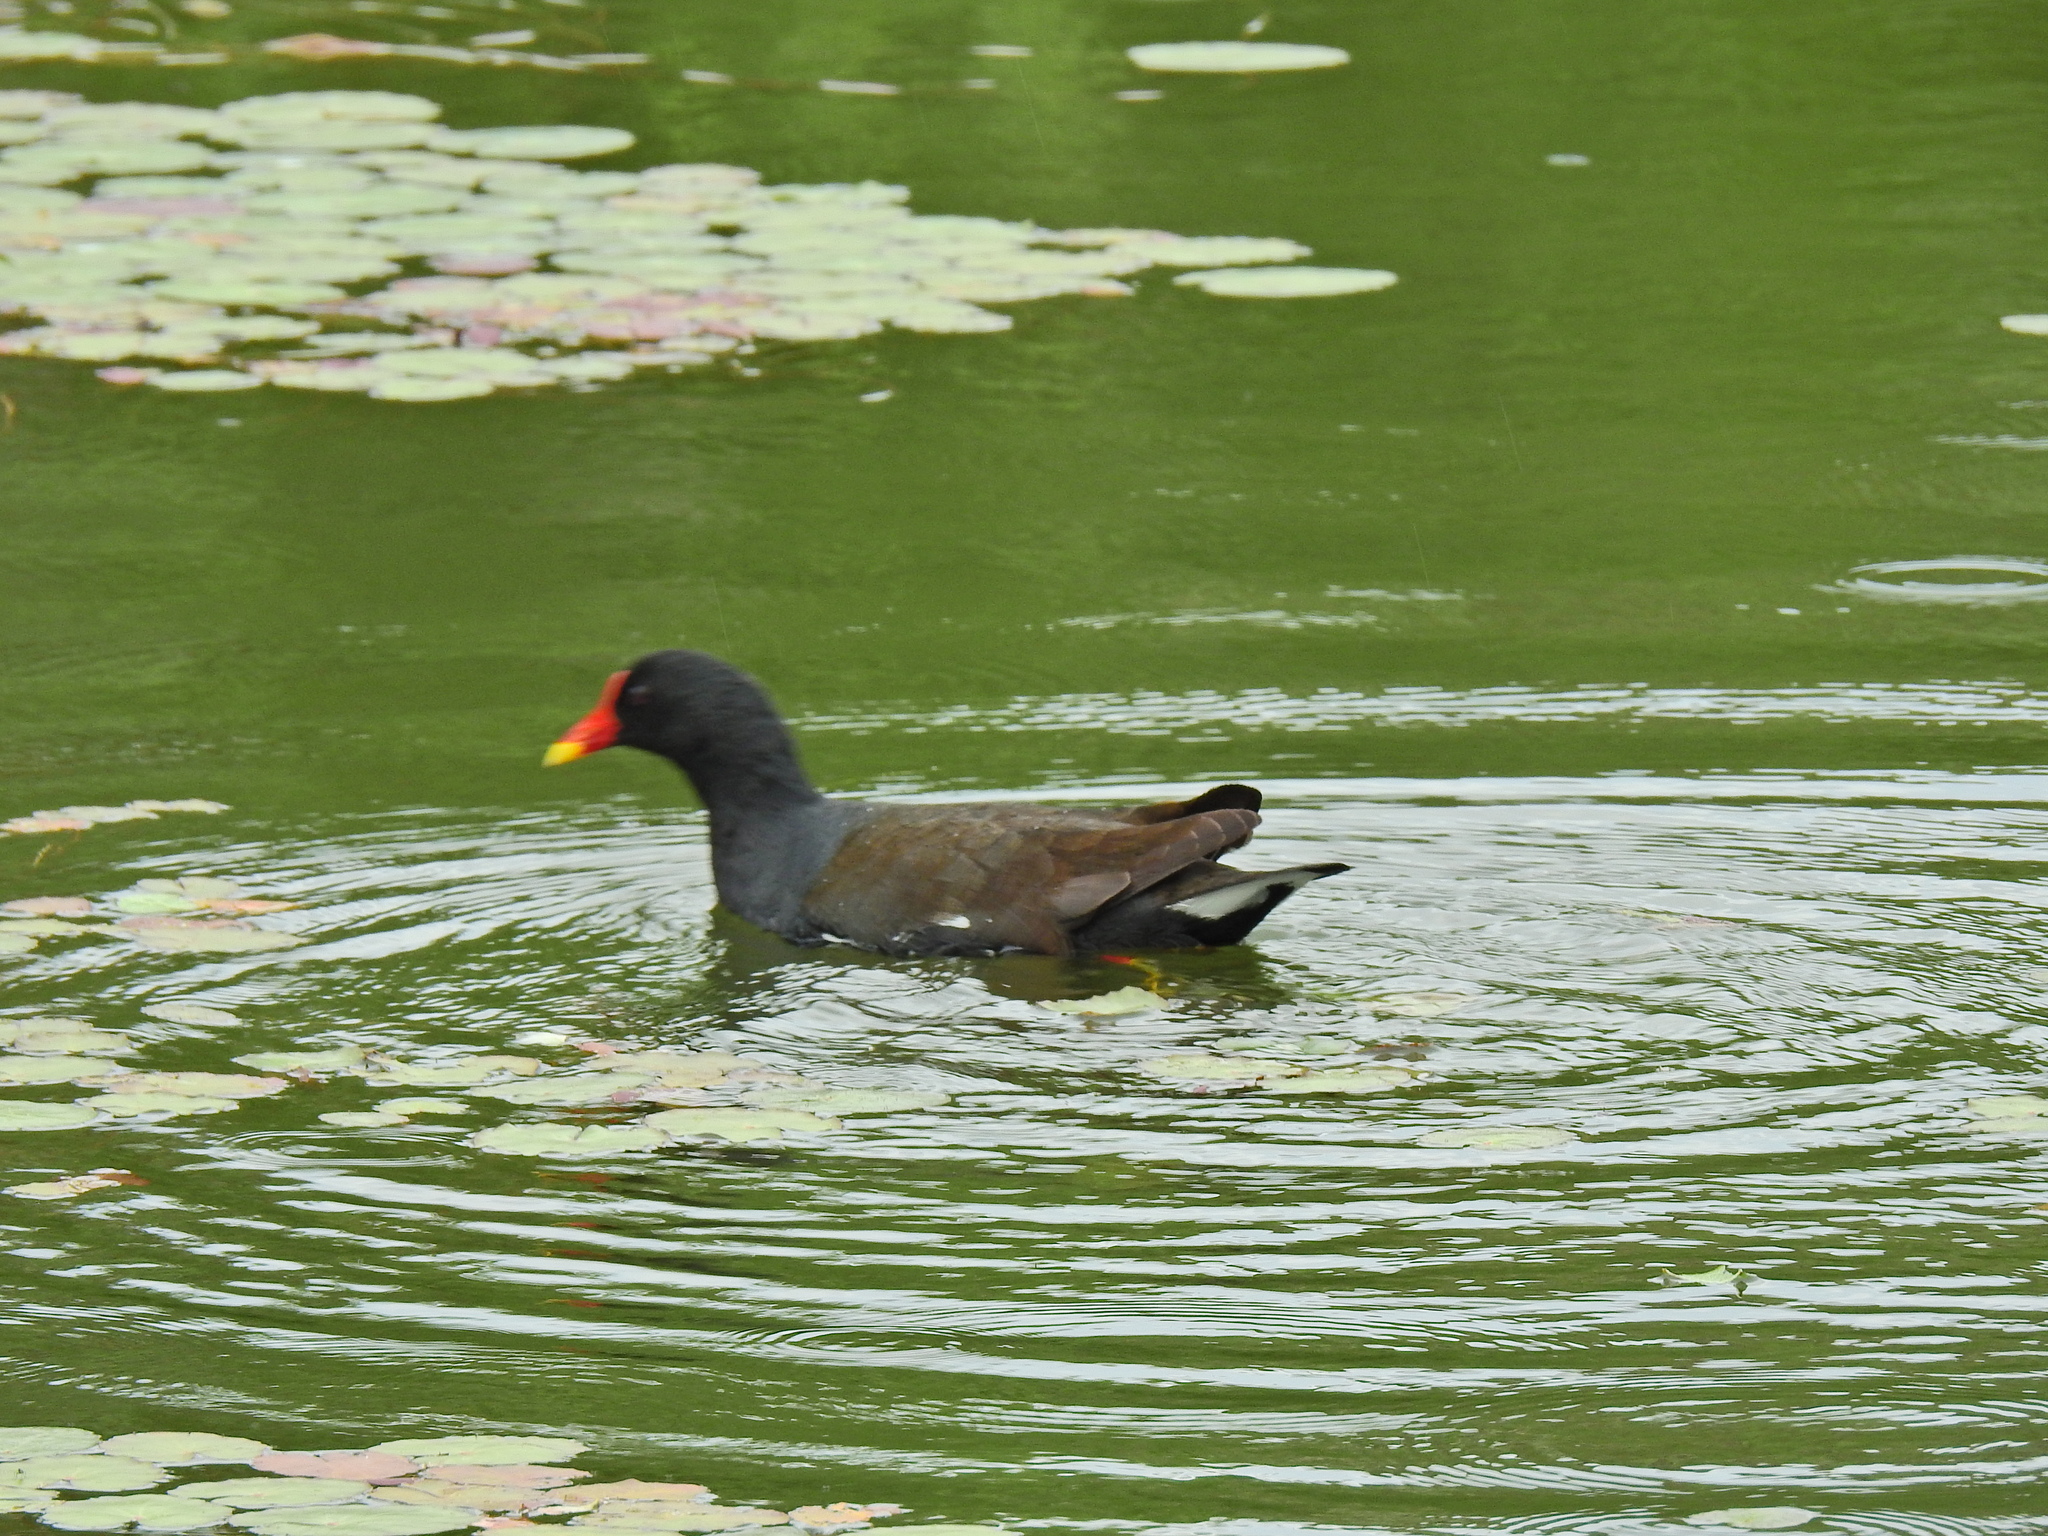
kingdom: Animalia
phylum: Chordata
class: Aves
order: Gruiformes
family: Rallidae
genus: Gallinula
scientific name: Gallinula chloropus
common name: Common moorhen
